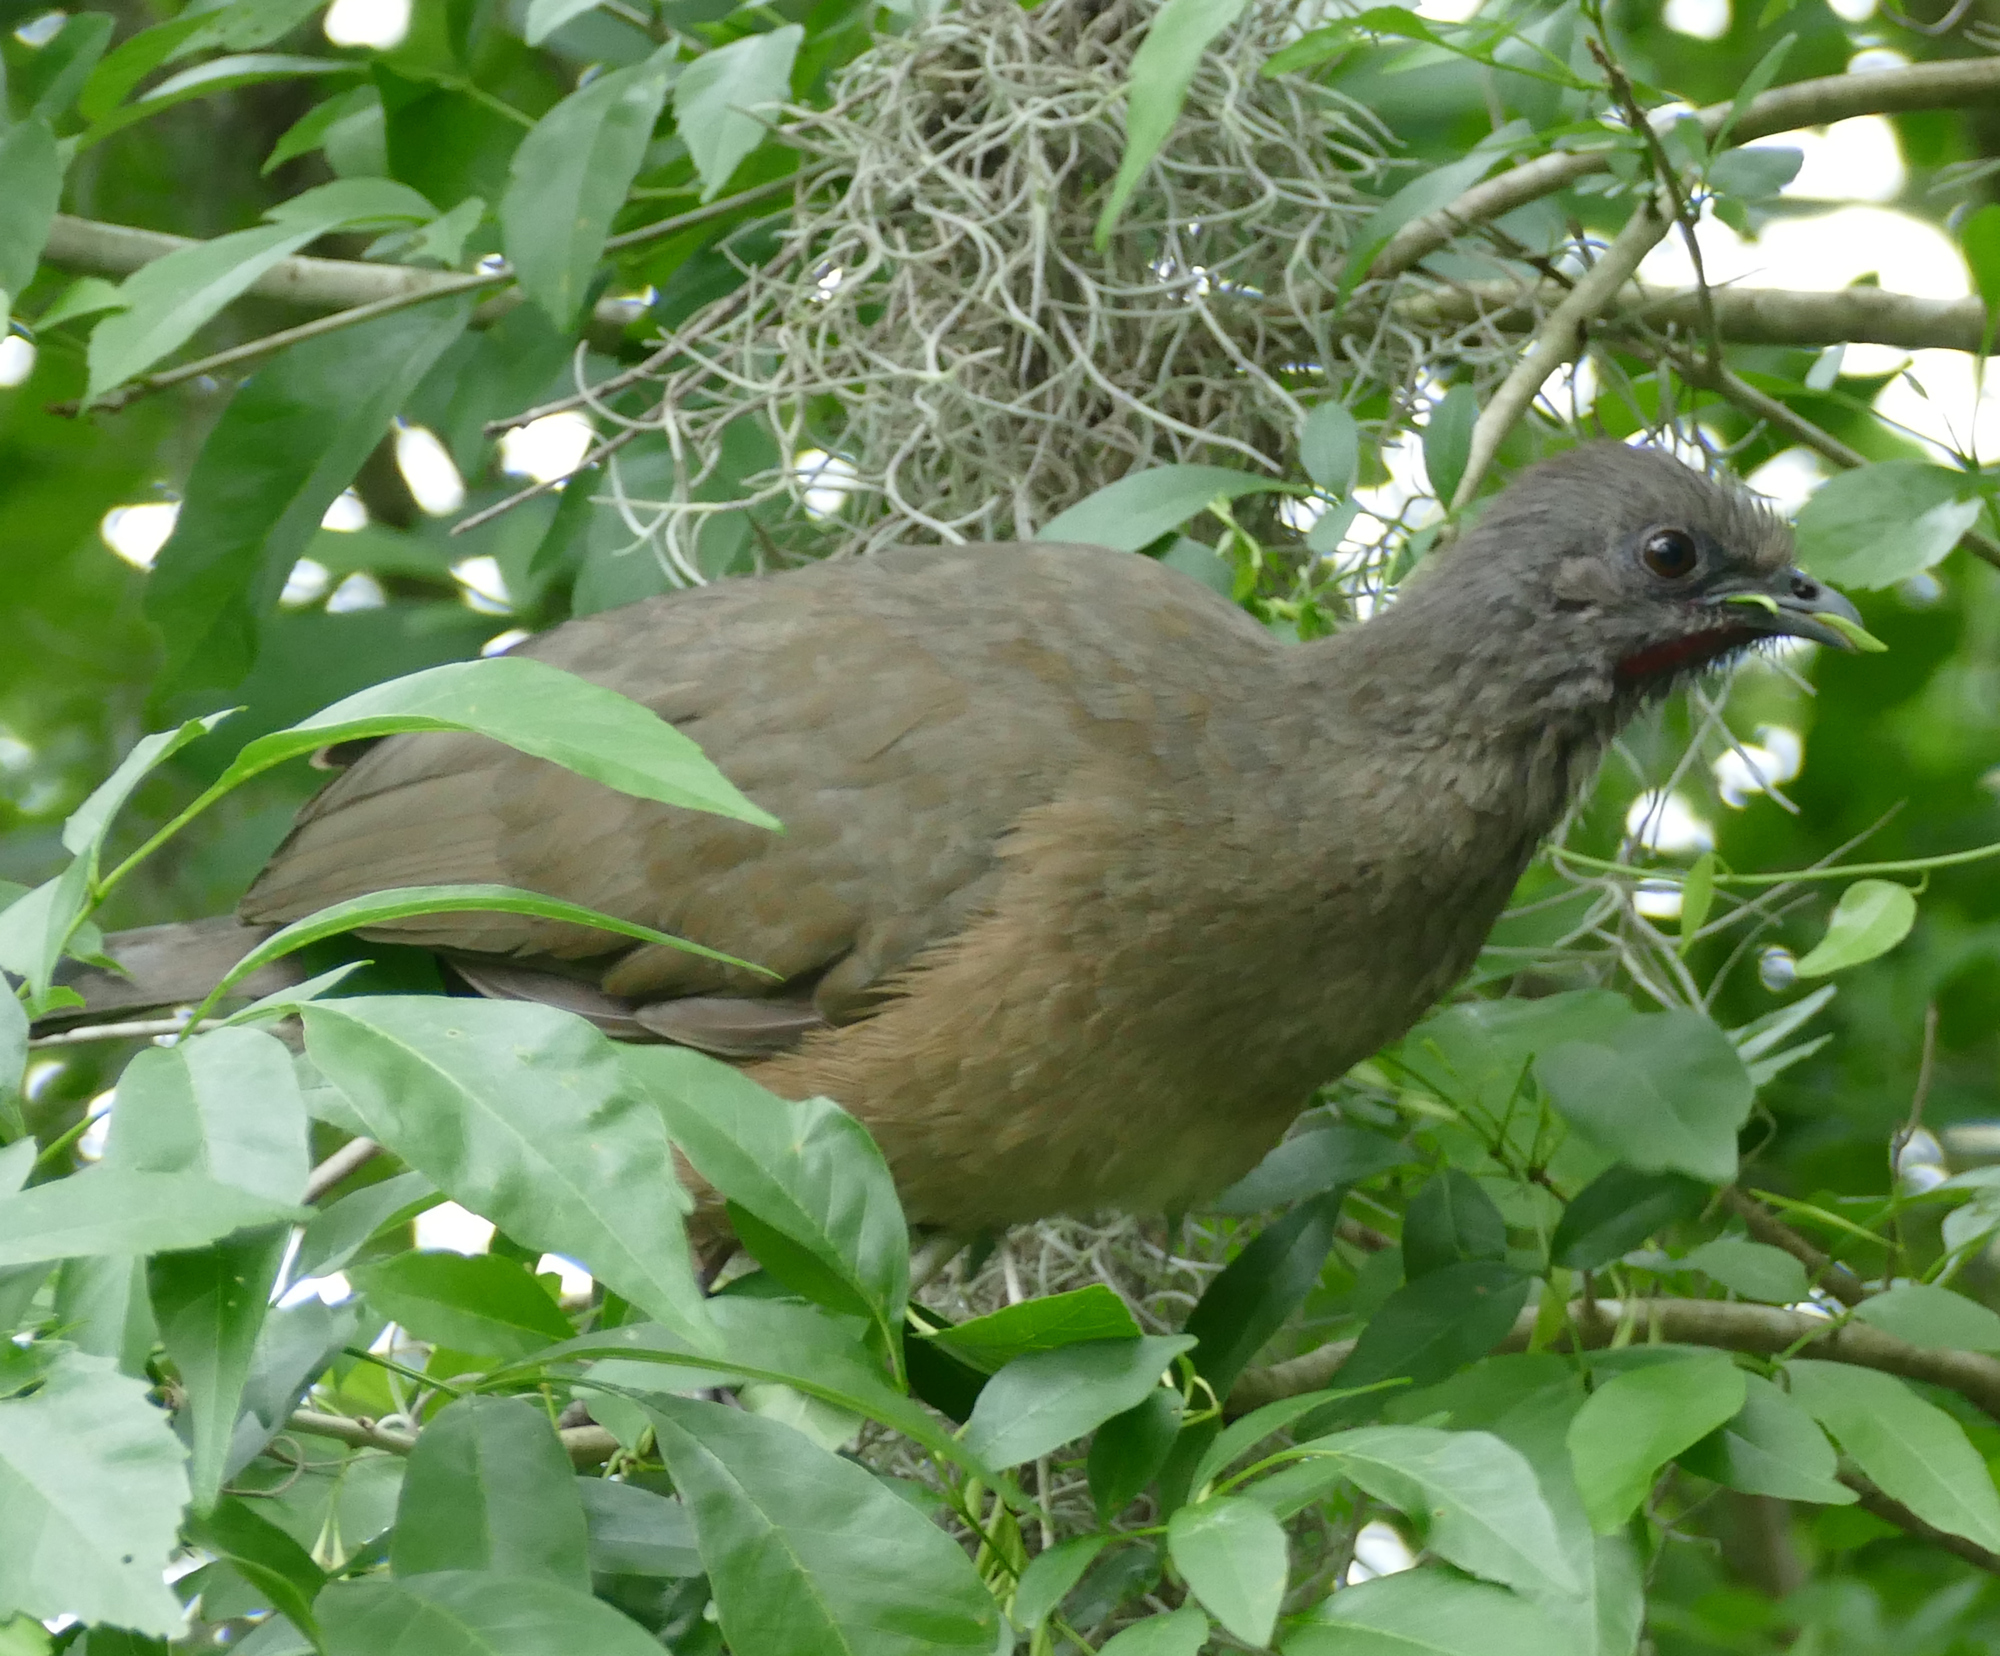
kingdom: Animalia
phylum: Chordata
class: Aves
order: Galliformes
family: Cracidae
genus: Ortalis
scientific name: Ortalis vetula
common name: Plain chachalaca
